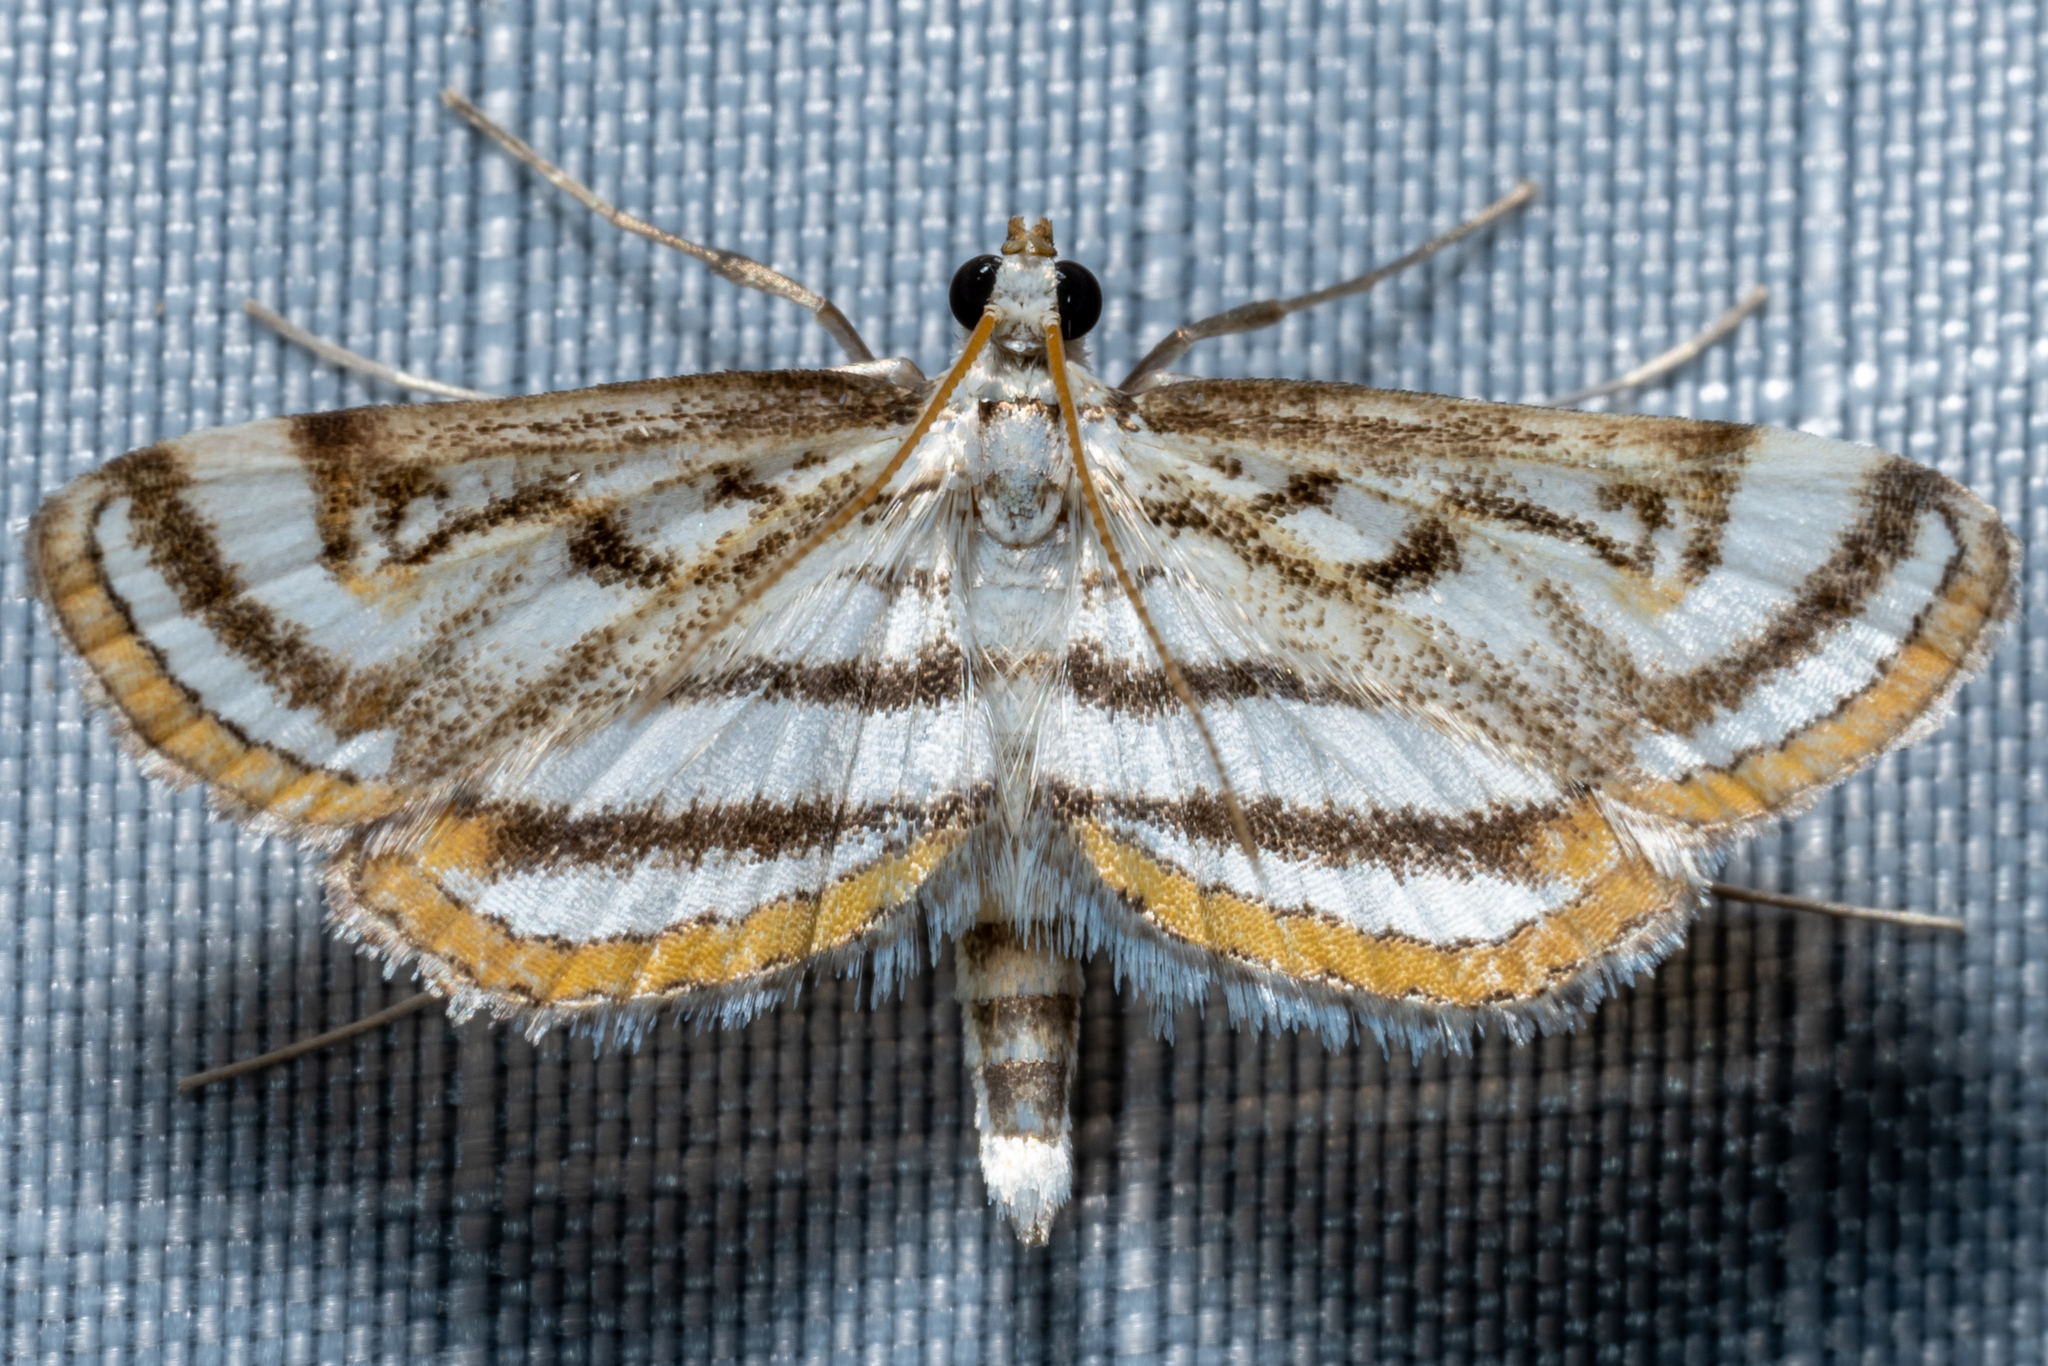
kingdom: Animalia
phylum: Arthropoda
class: Insecta
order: Lepidoptera
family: Crambidae
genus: Parapoynx
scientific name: Parapoynx badiusalis
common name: Chestnut-marked pondweed moth
